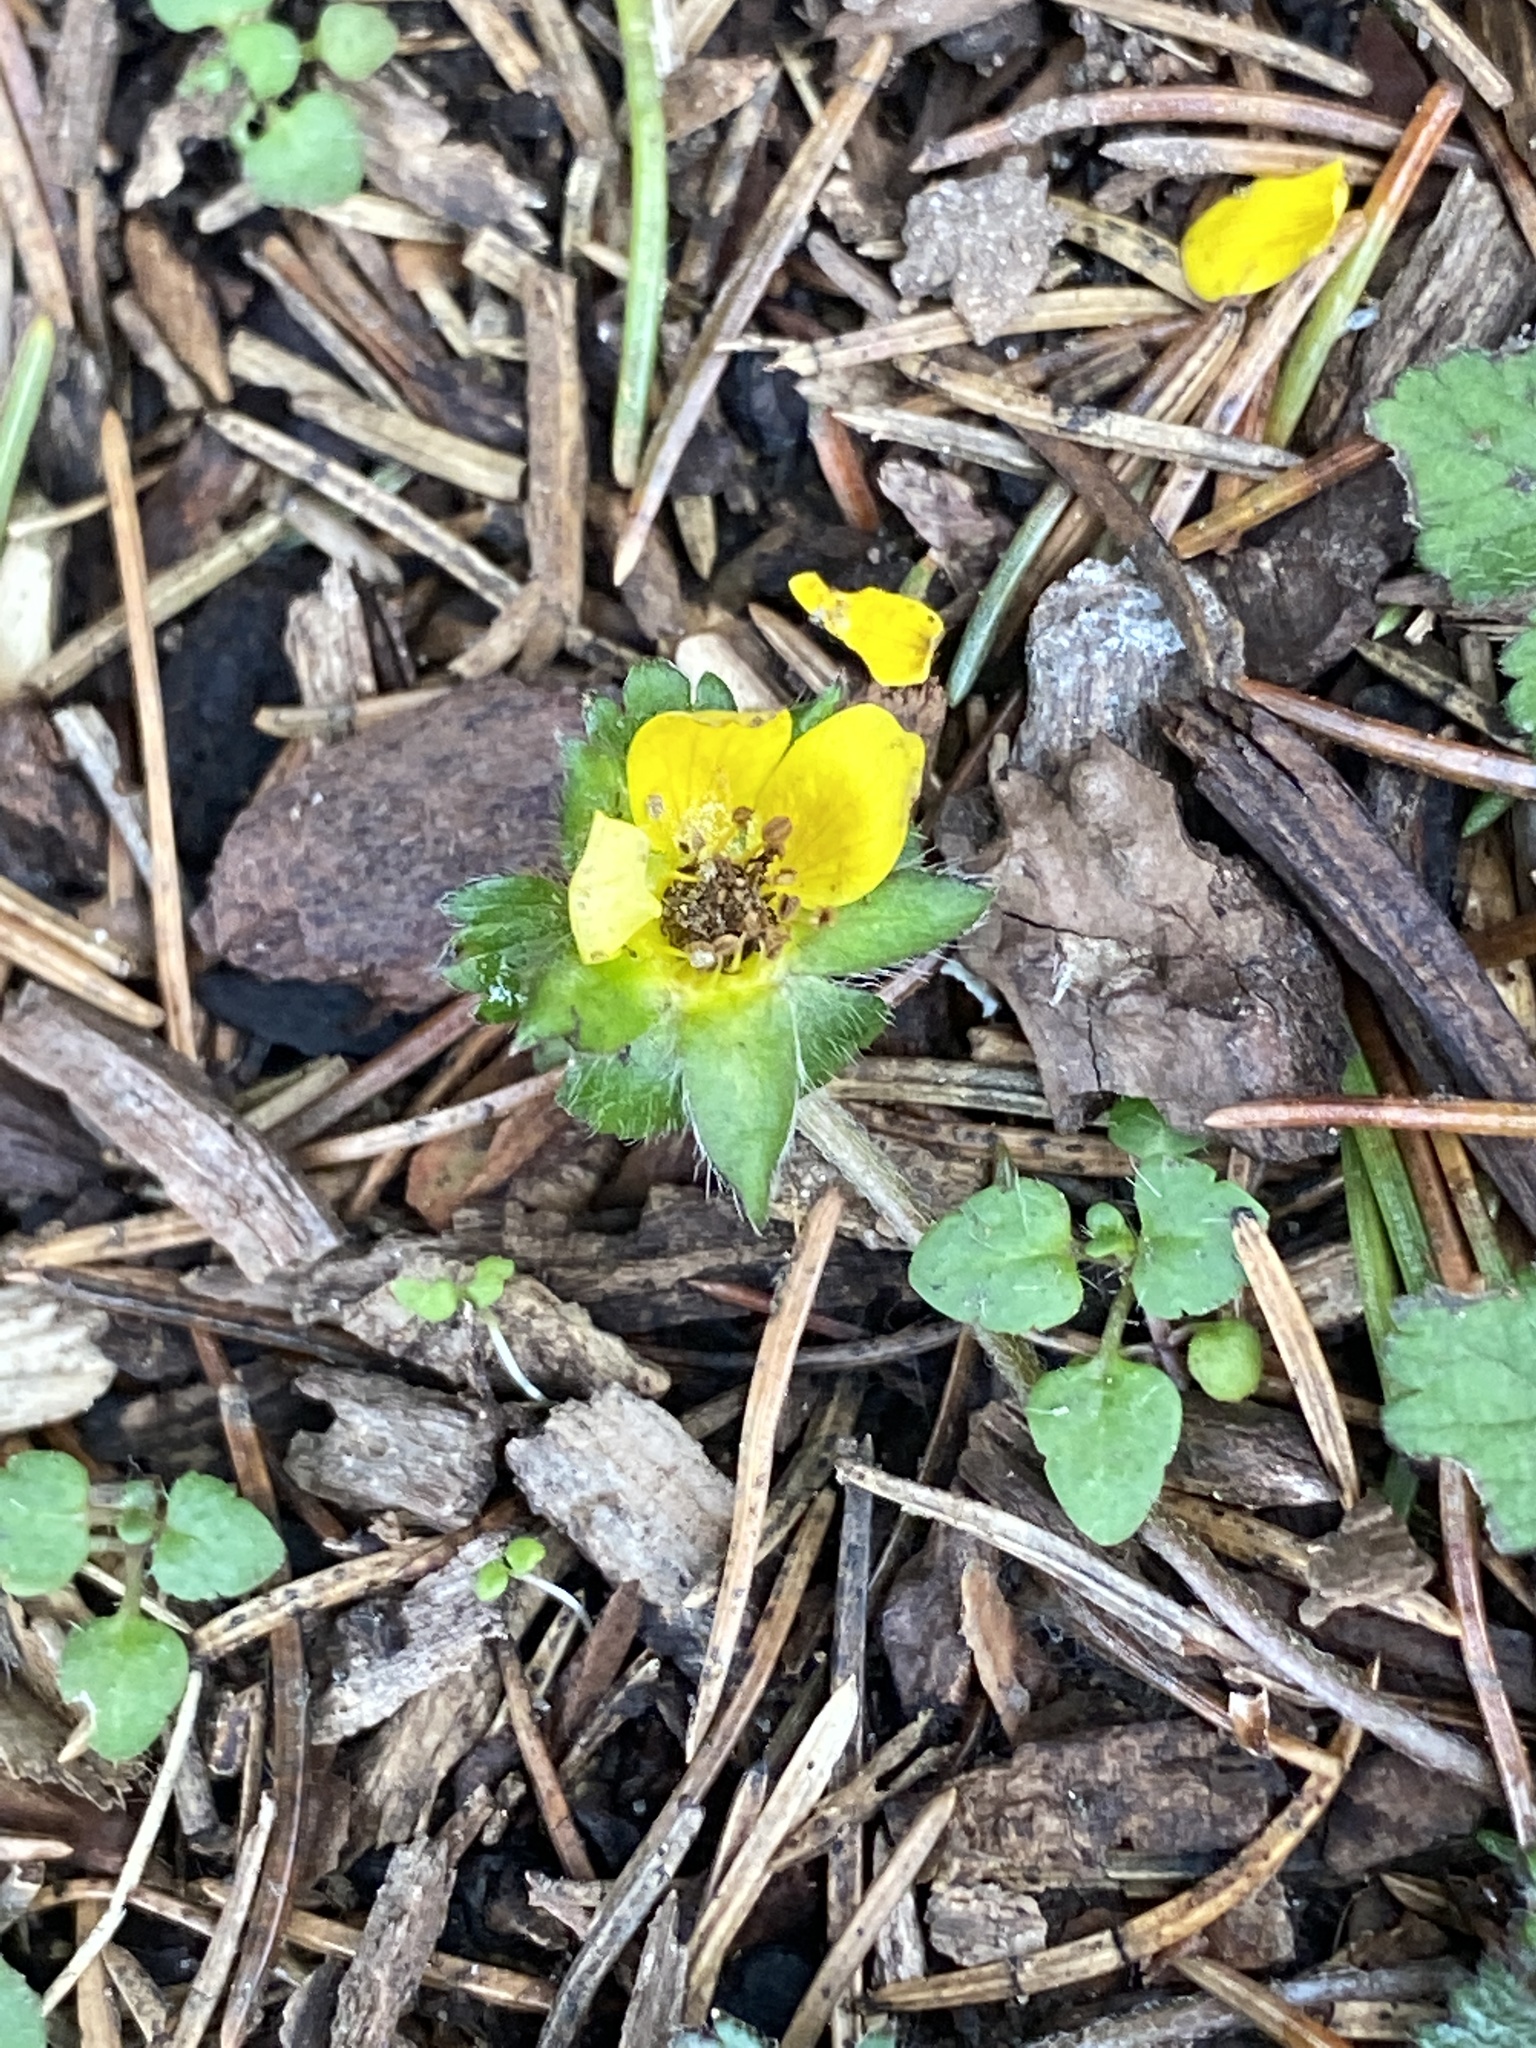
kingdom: Plantae
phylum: Tracheophyta
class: Magnoliopsida
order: Rosales
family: Rosaceae
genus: Potentilla
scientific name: Potentilla indica
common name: Yellow-flowered strawberry
